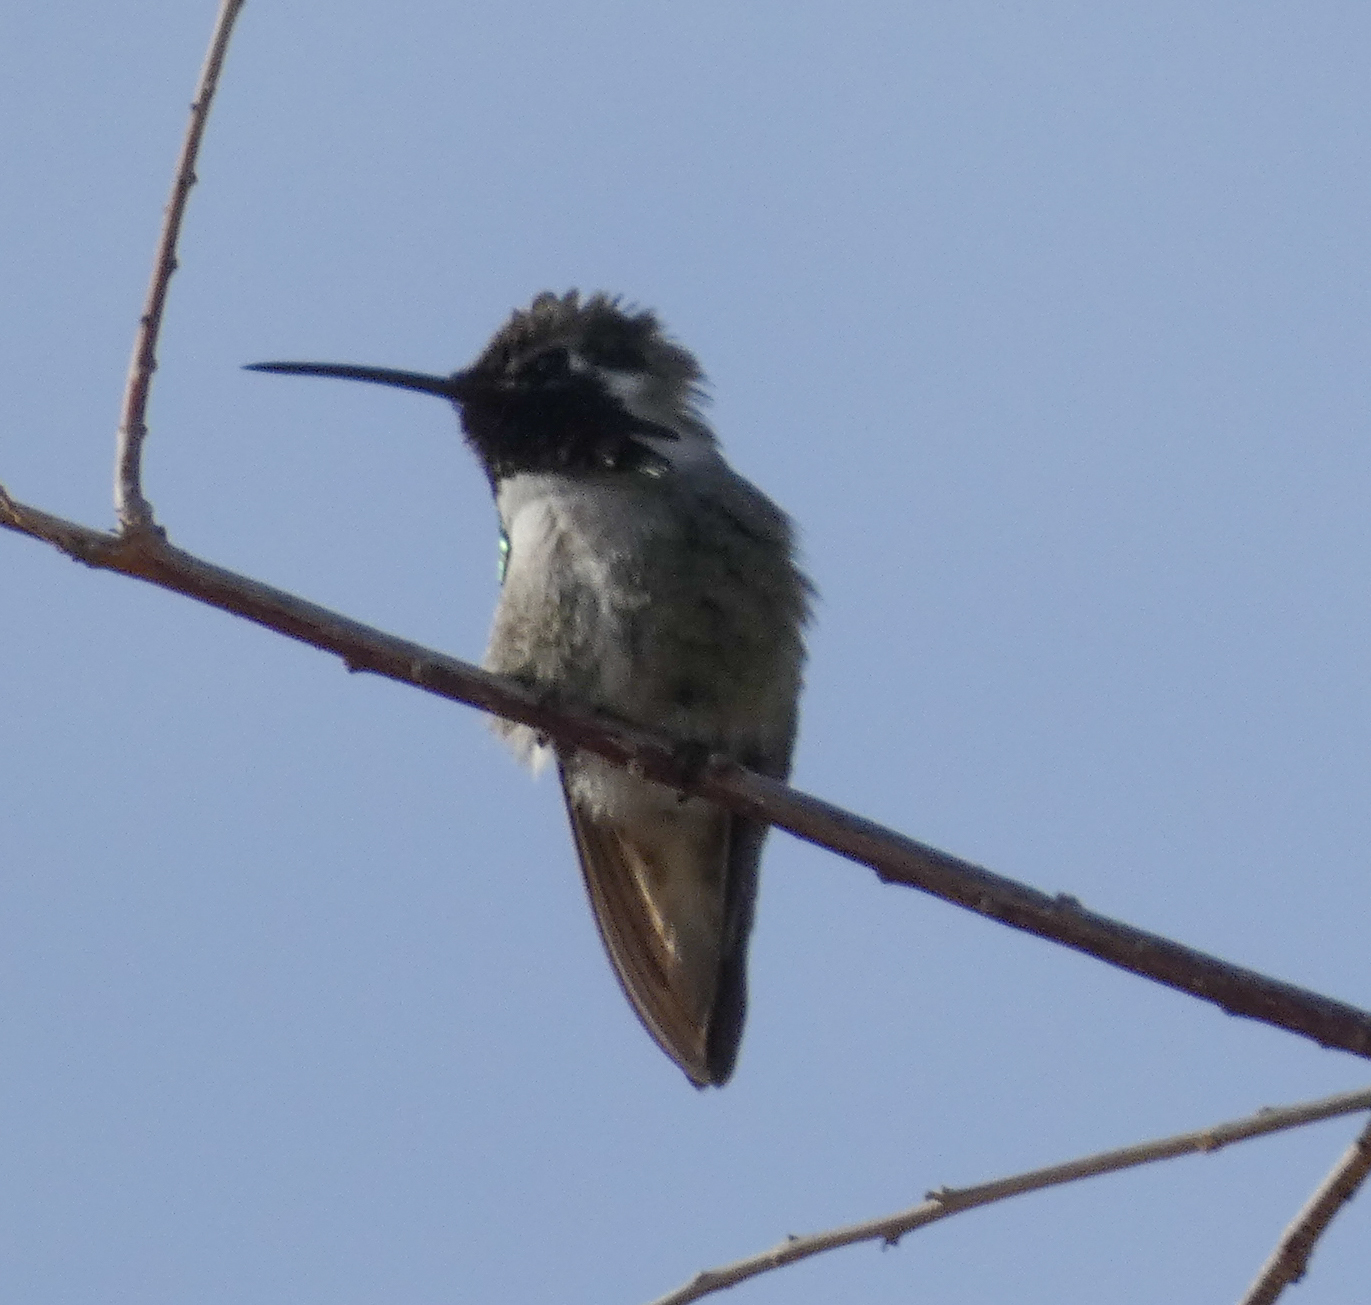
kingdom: Animalia
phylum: Chordata
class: Aves
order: Apodiformes
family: Trochilidae
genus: Calypte
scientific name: Calypte costae
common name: Costa's hummingbird
